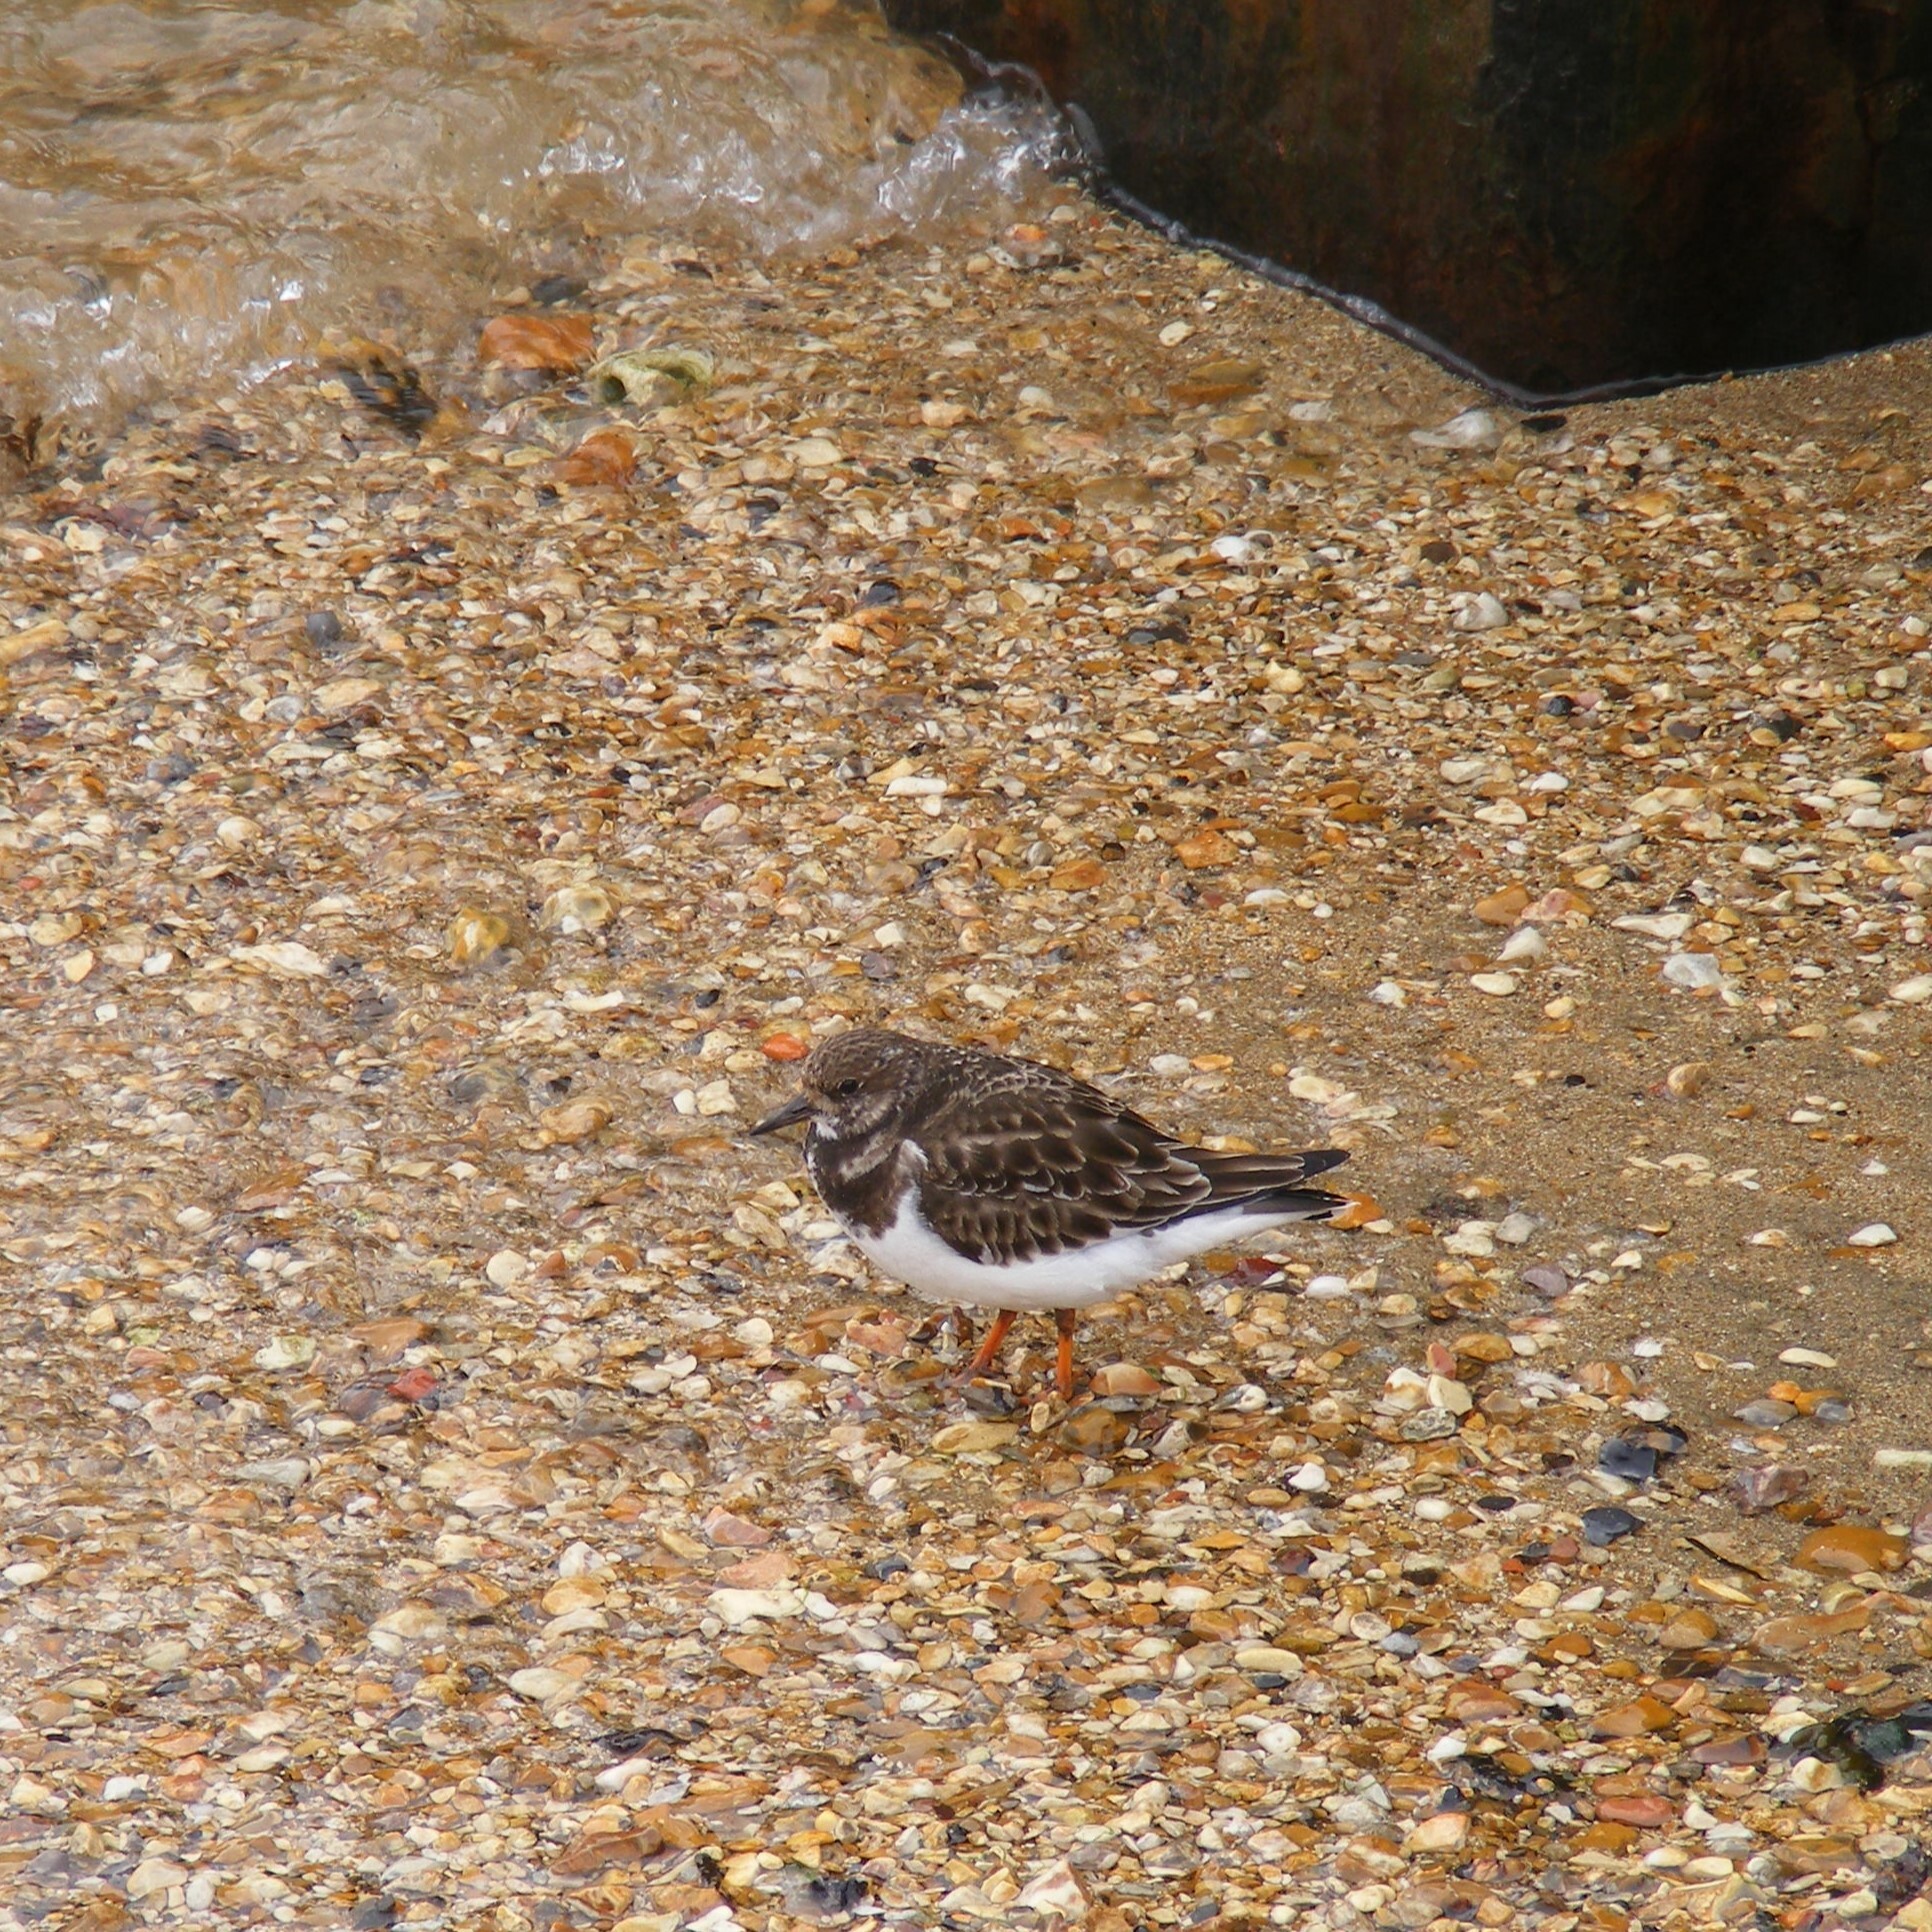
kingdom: Animalia
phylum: Chordata
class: Aves
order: Charadriiformes
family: Scolopacidae
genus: Arenaria
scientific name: Arenaria interpres
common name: Ruddy turnstone
